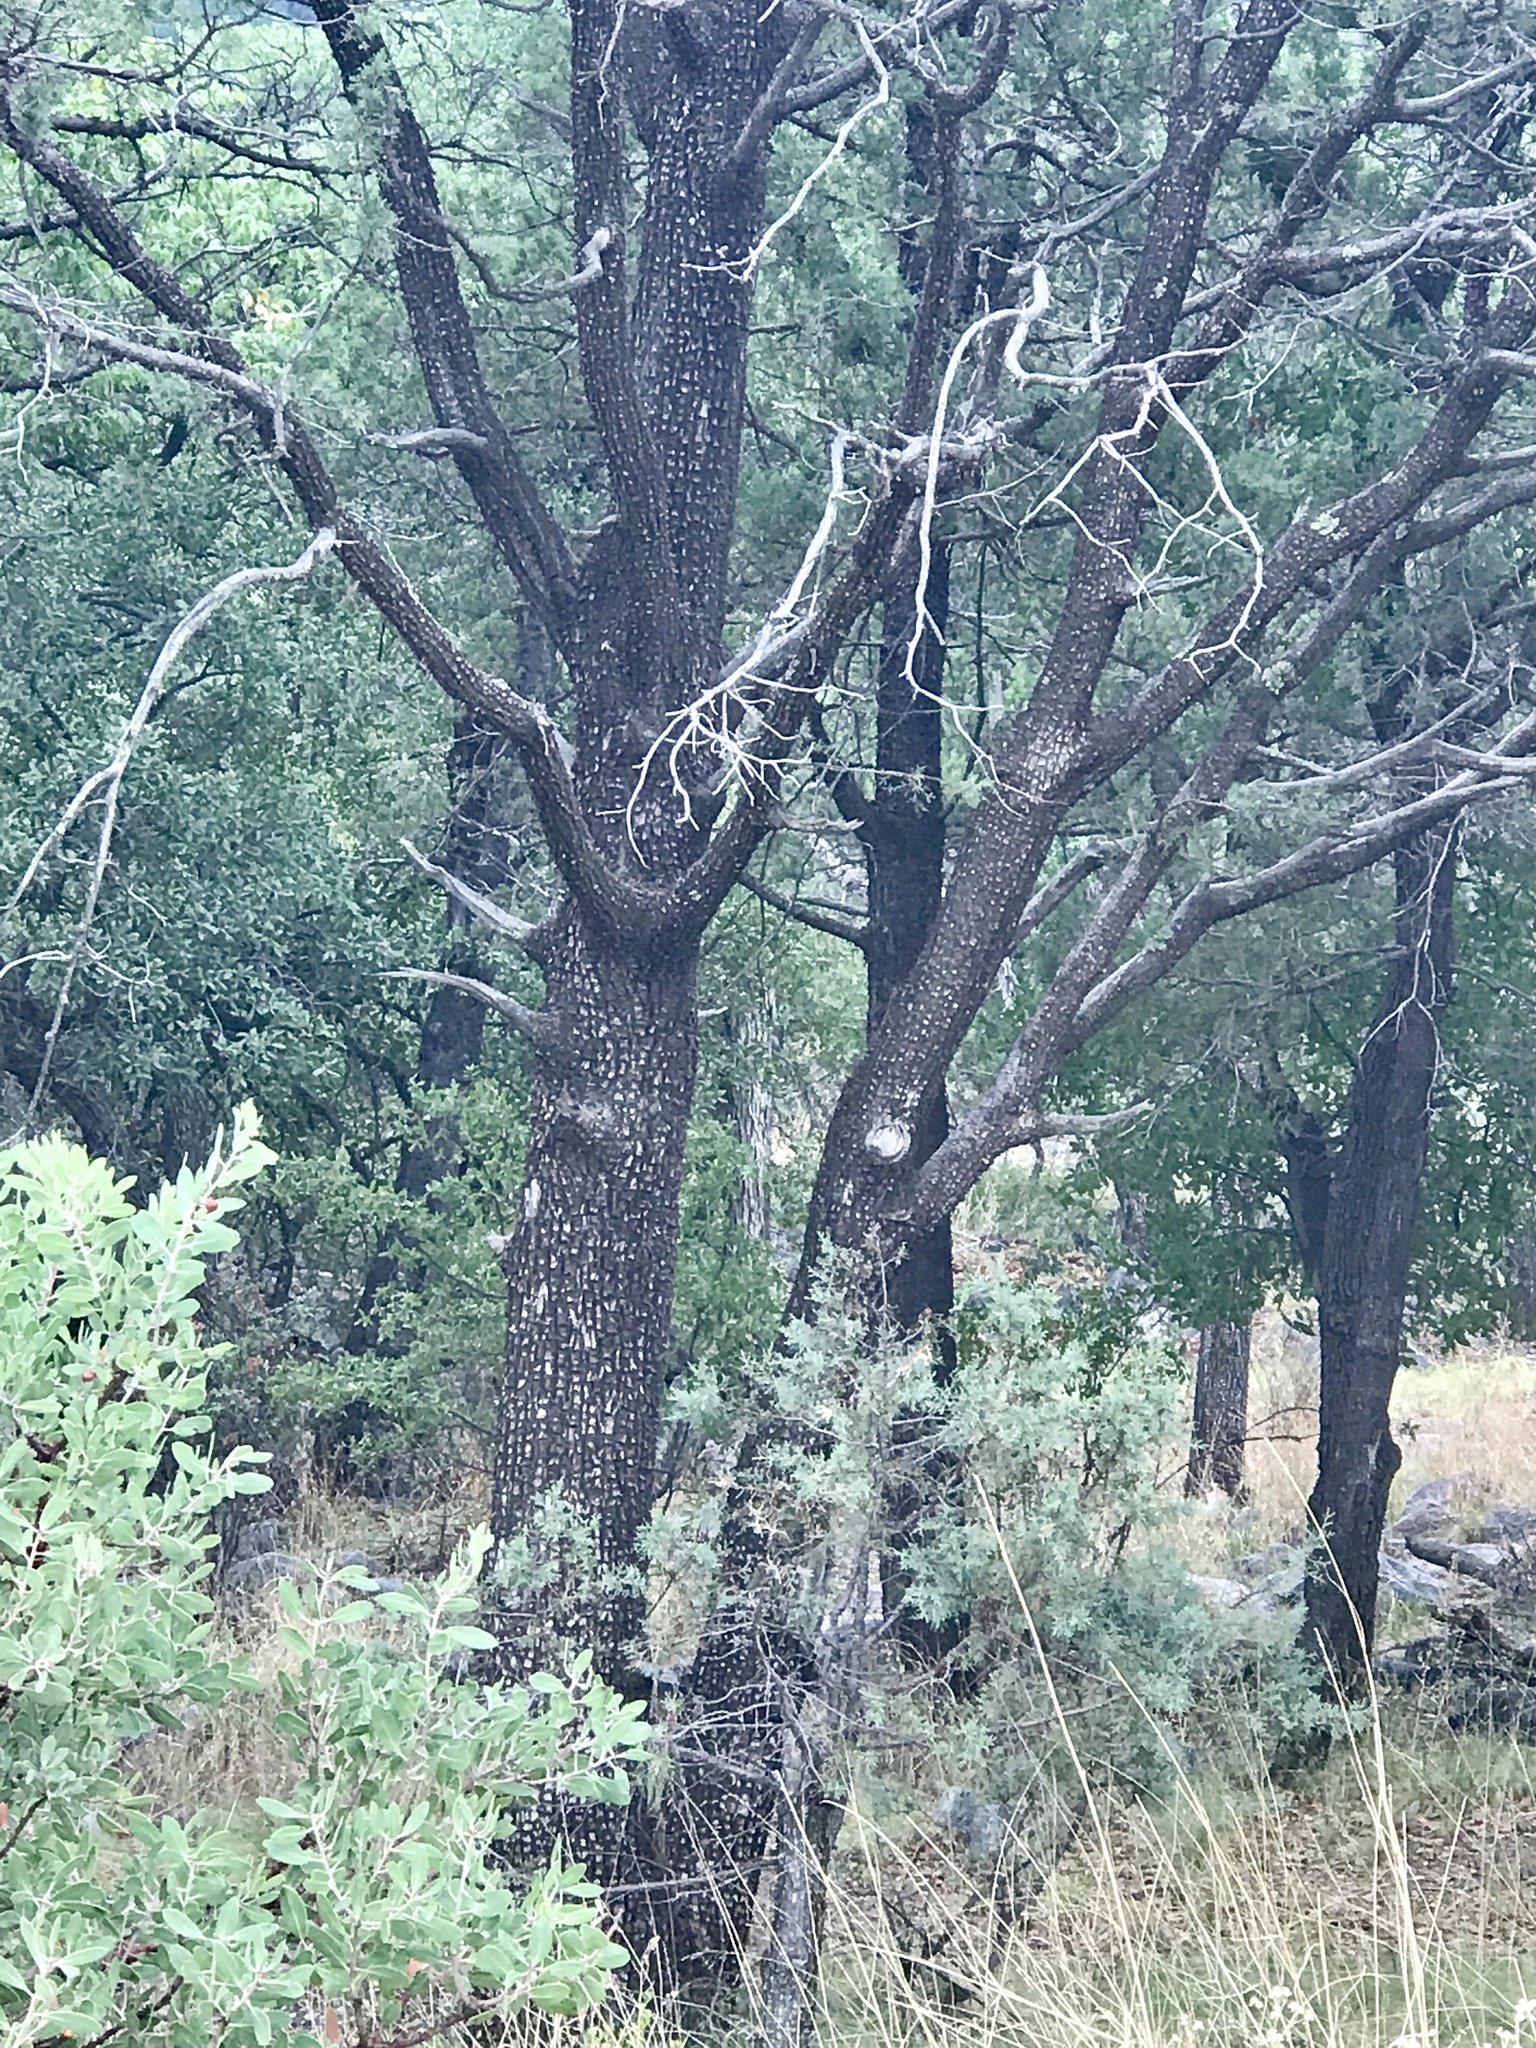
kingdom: Plantae
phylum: Tracheophyta
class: Pinopsida
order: Pinales
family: Cupressaceae
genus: Juniperus
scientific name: Juniperus deppeana
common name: Alligator juniper
